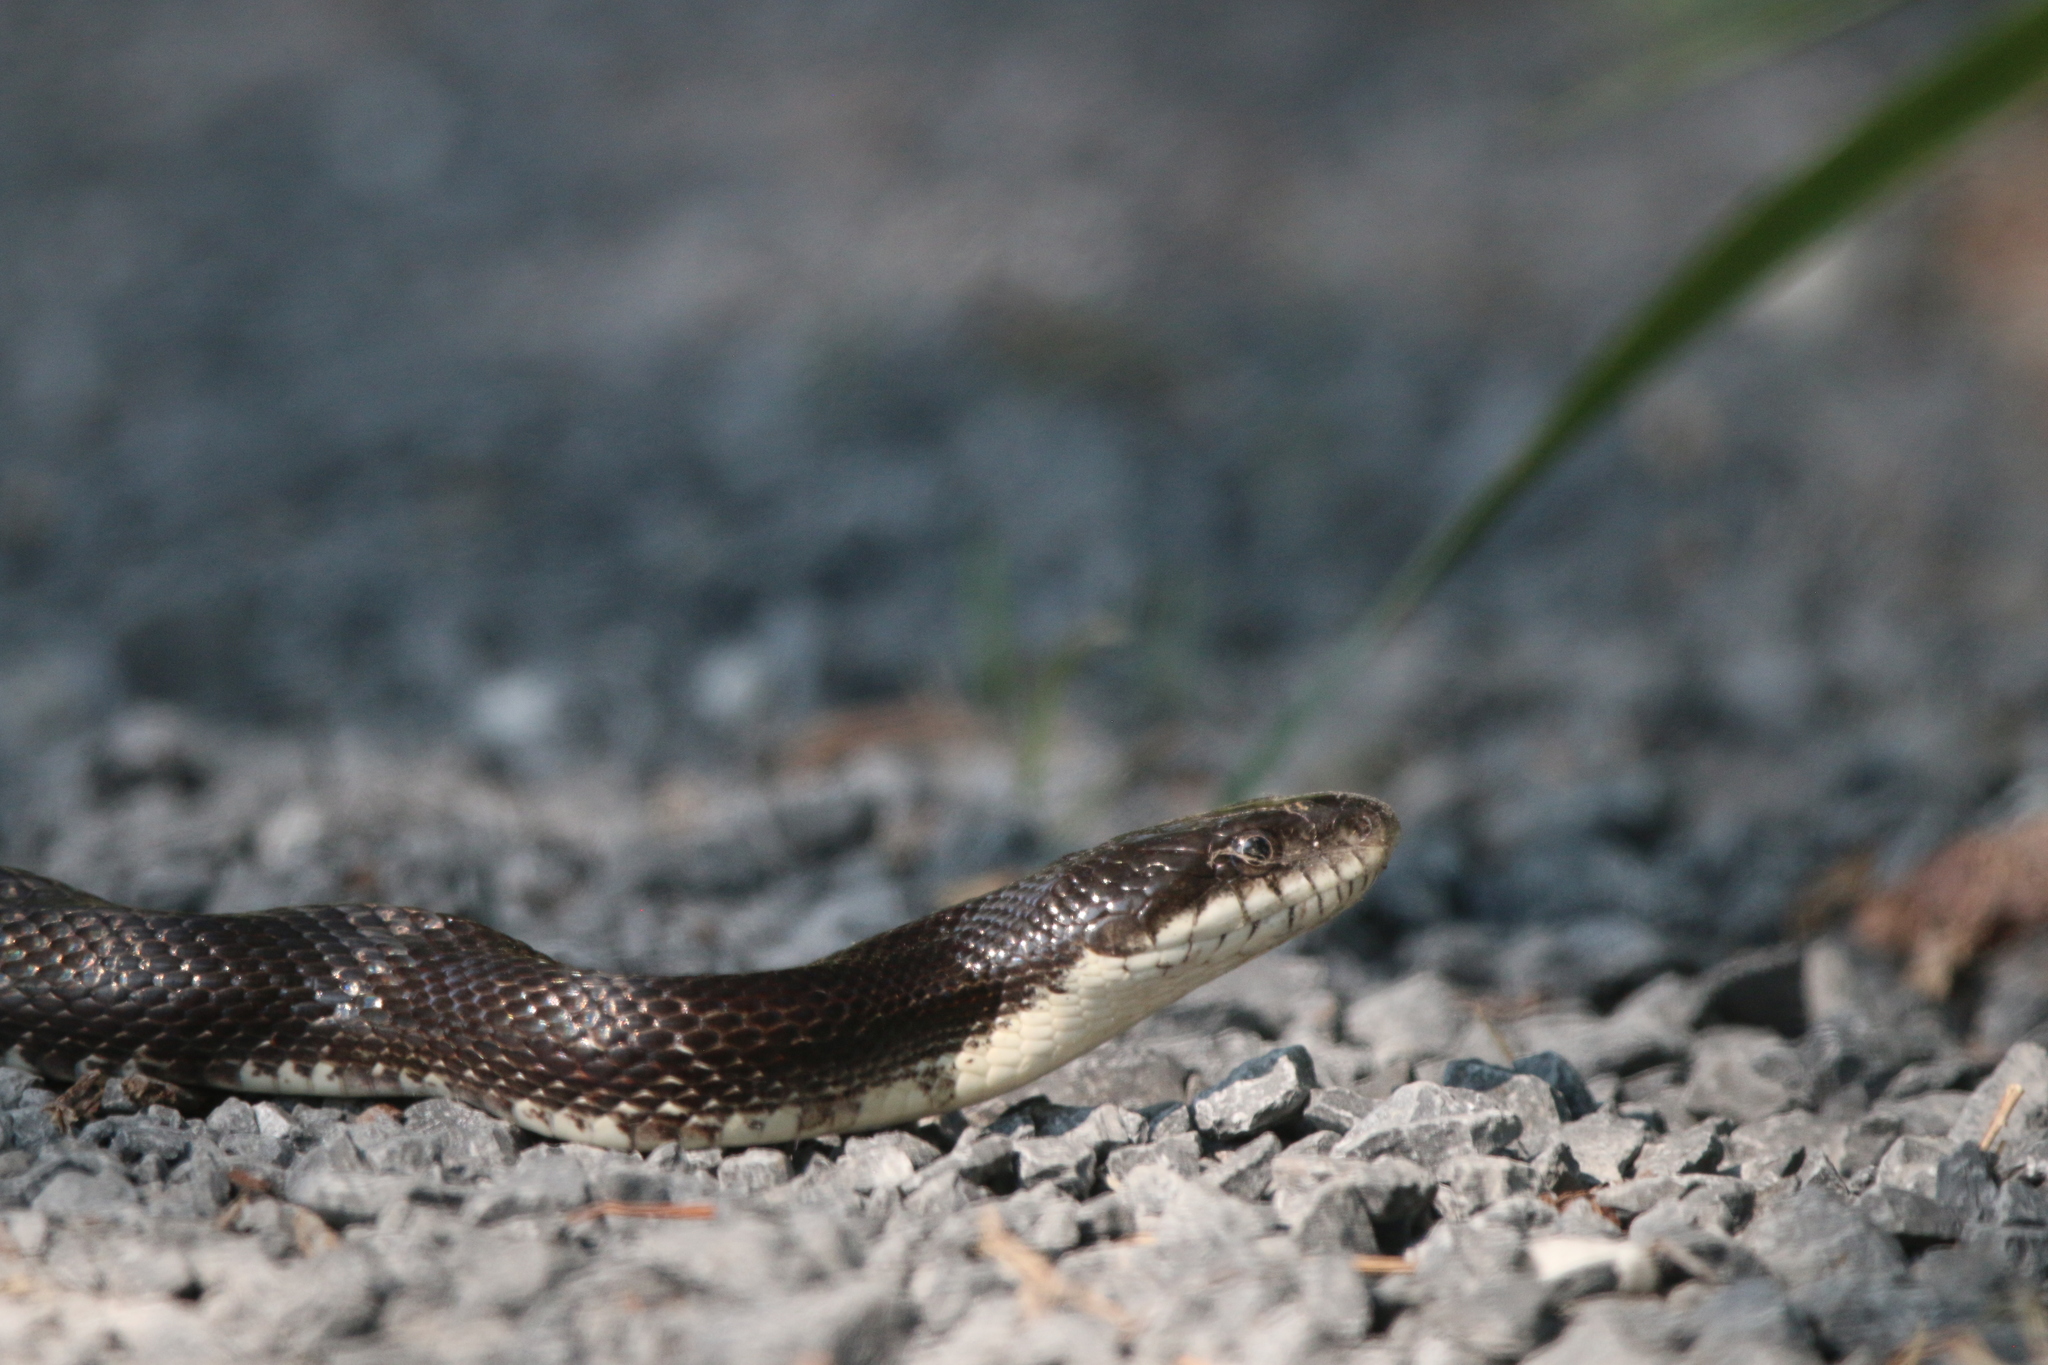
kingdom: Animalia
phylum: Chordata
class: Squamata
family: Colubridae
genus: Pantherophis
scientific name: Pantherophis alleghaniensis
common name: Eastern rat snake
